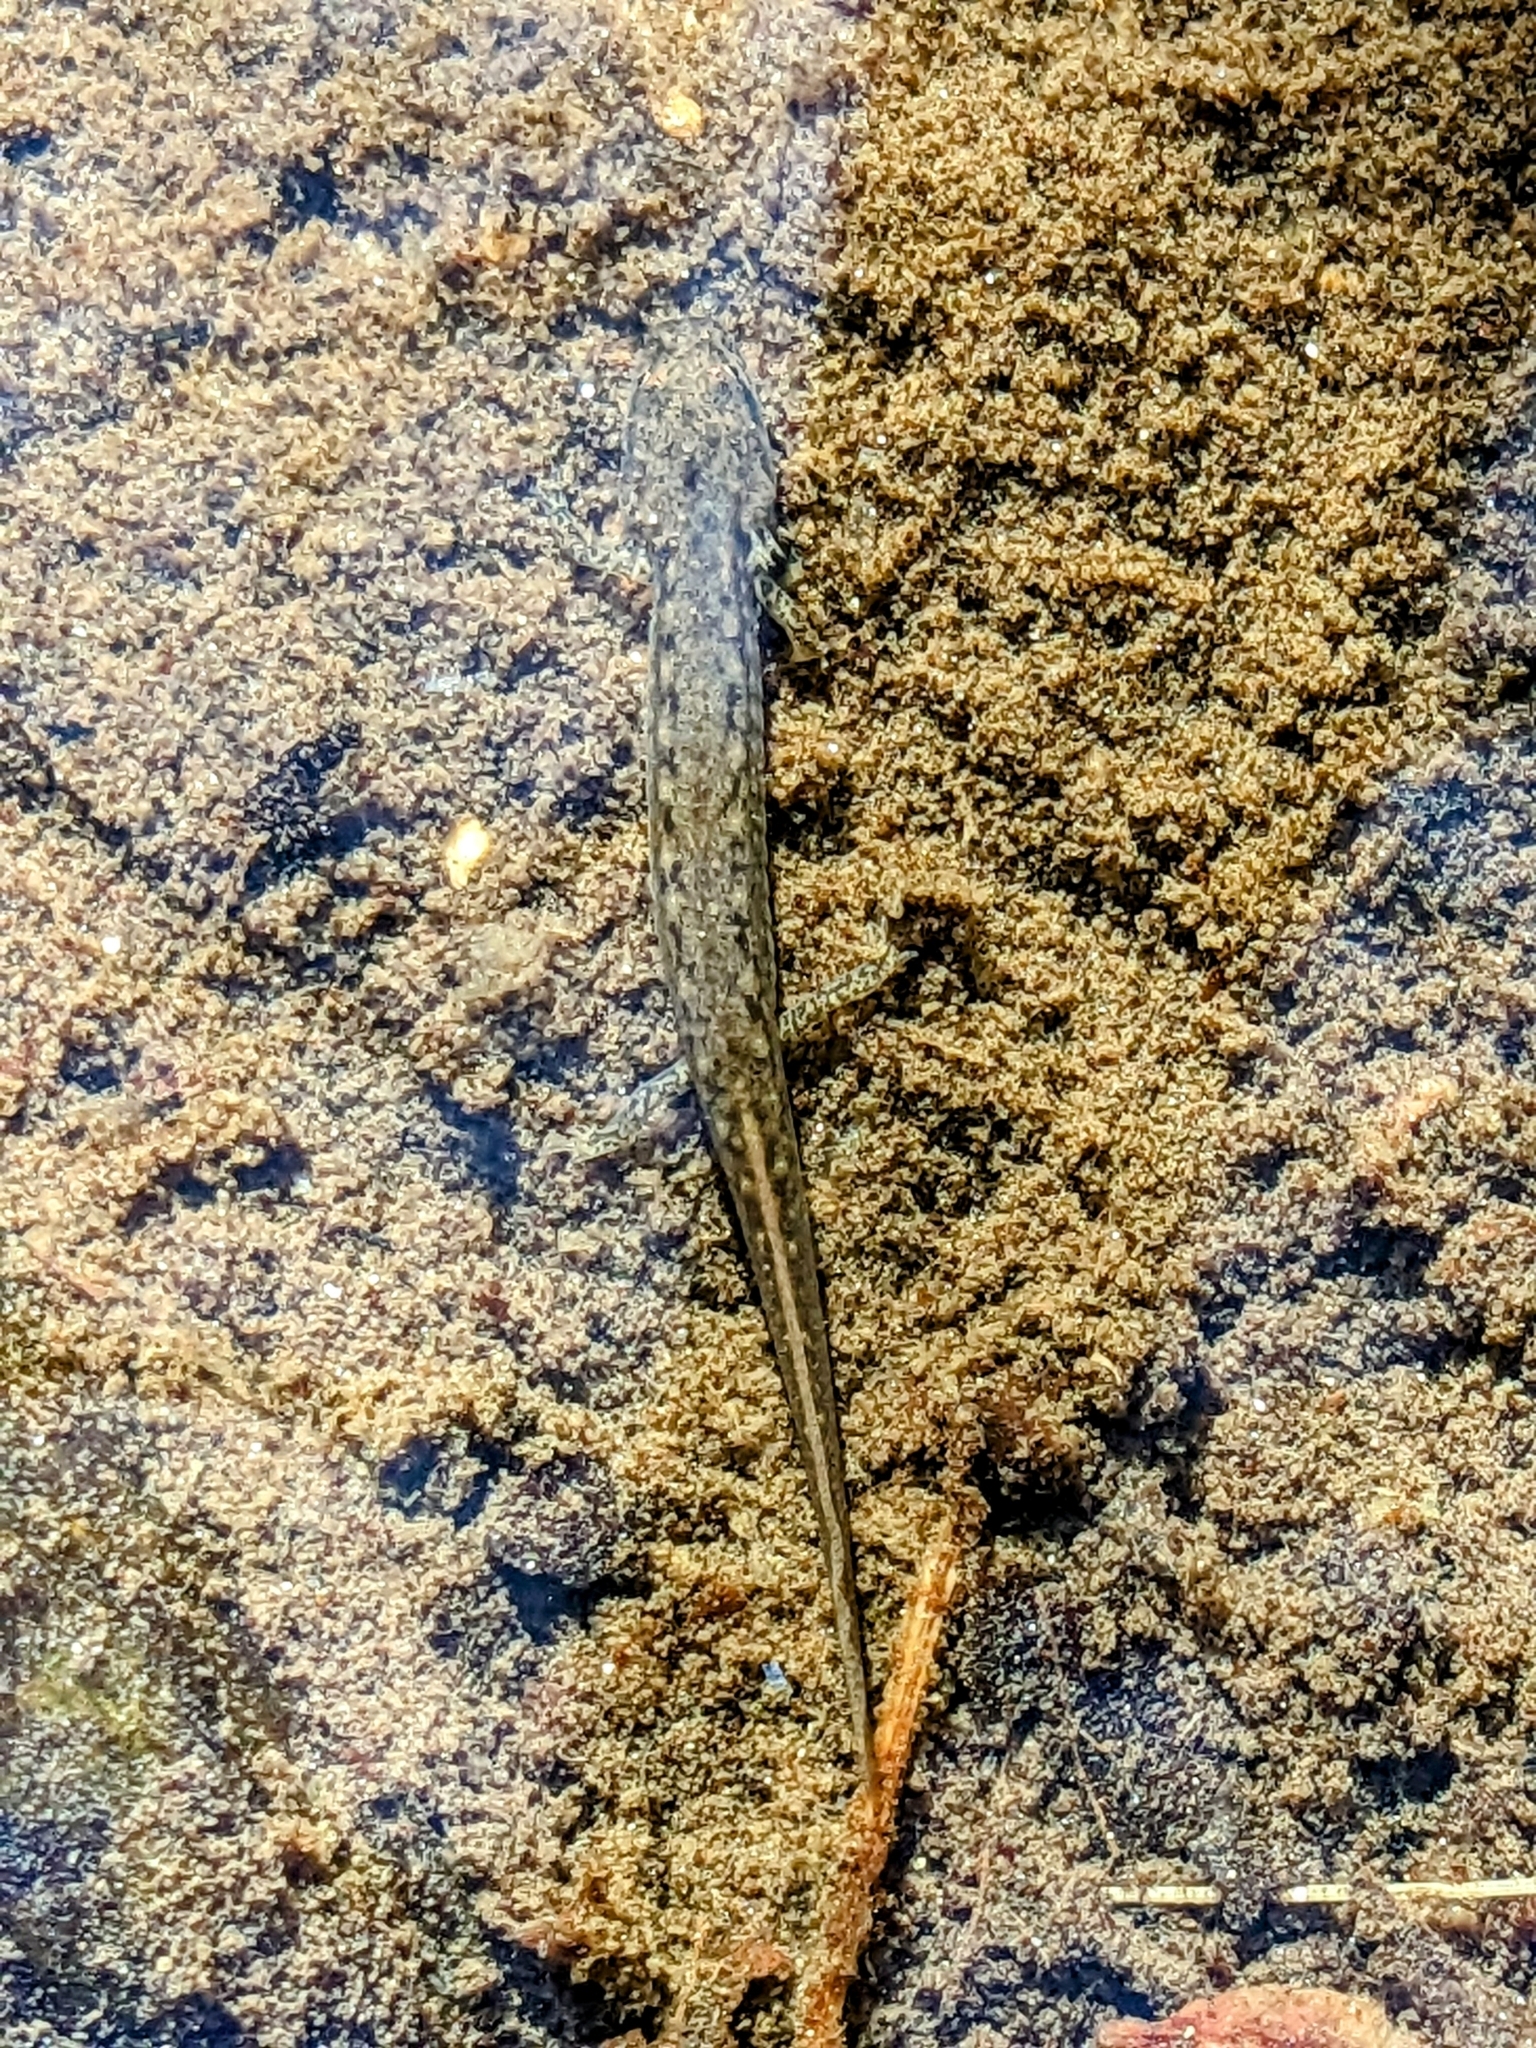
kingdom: Animalia
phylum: Chordata
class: Amphibia
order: Caudata
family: Plethodontidae
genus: Eurycea
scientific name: Eurycea bislineata
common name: Northern two-lined salamander
